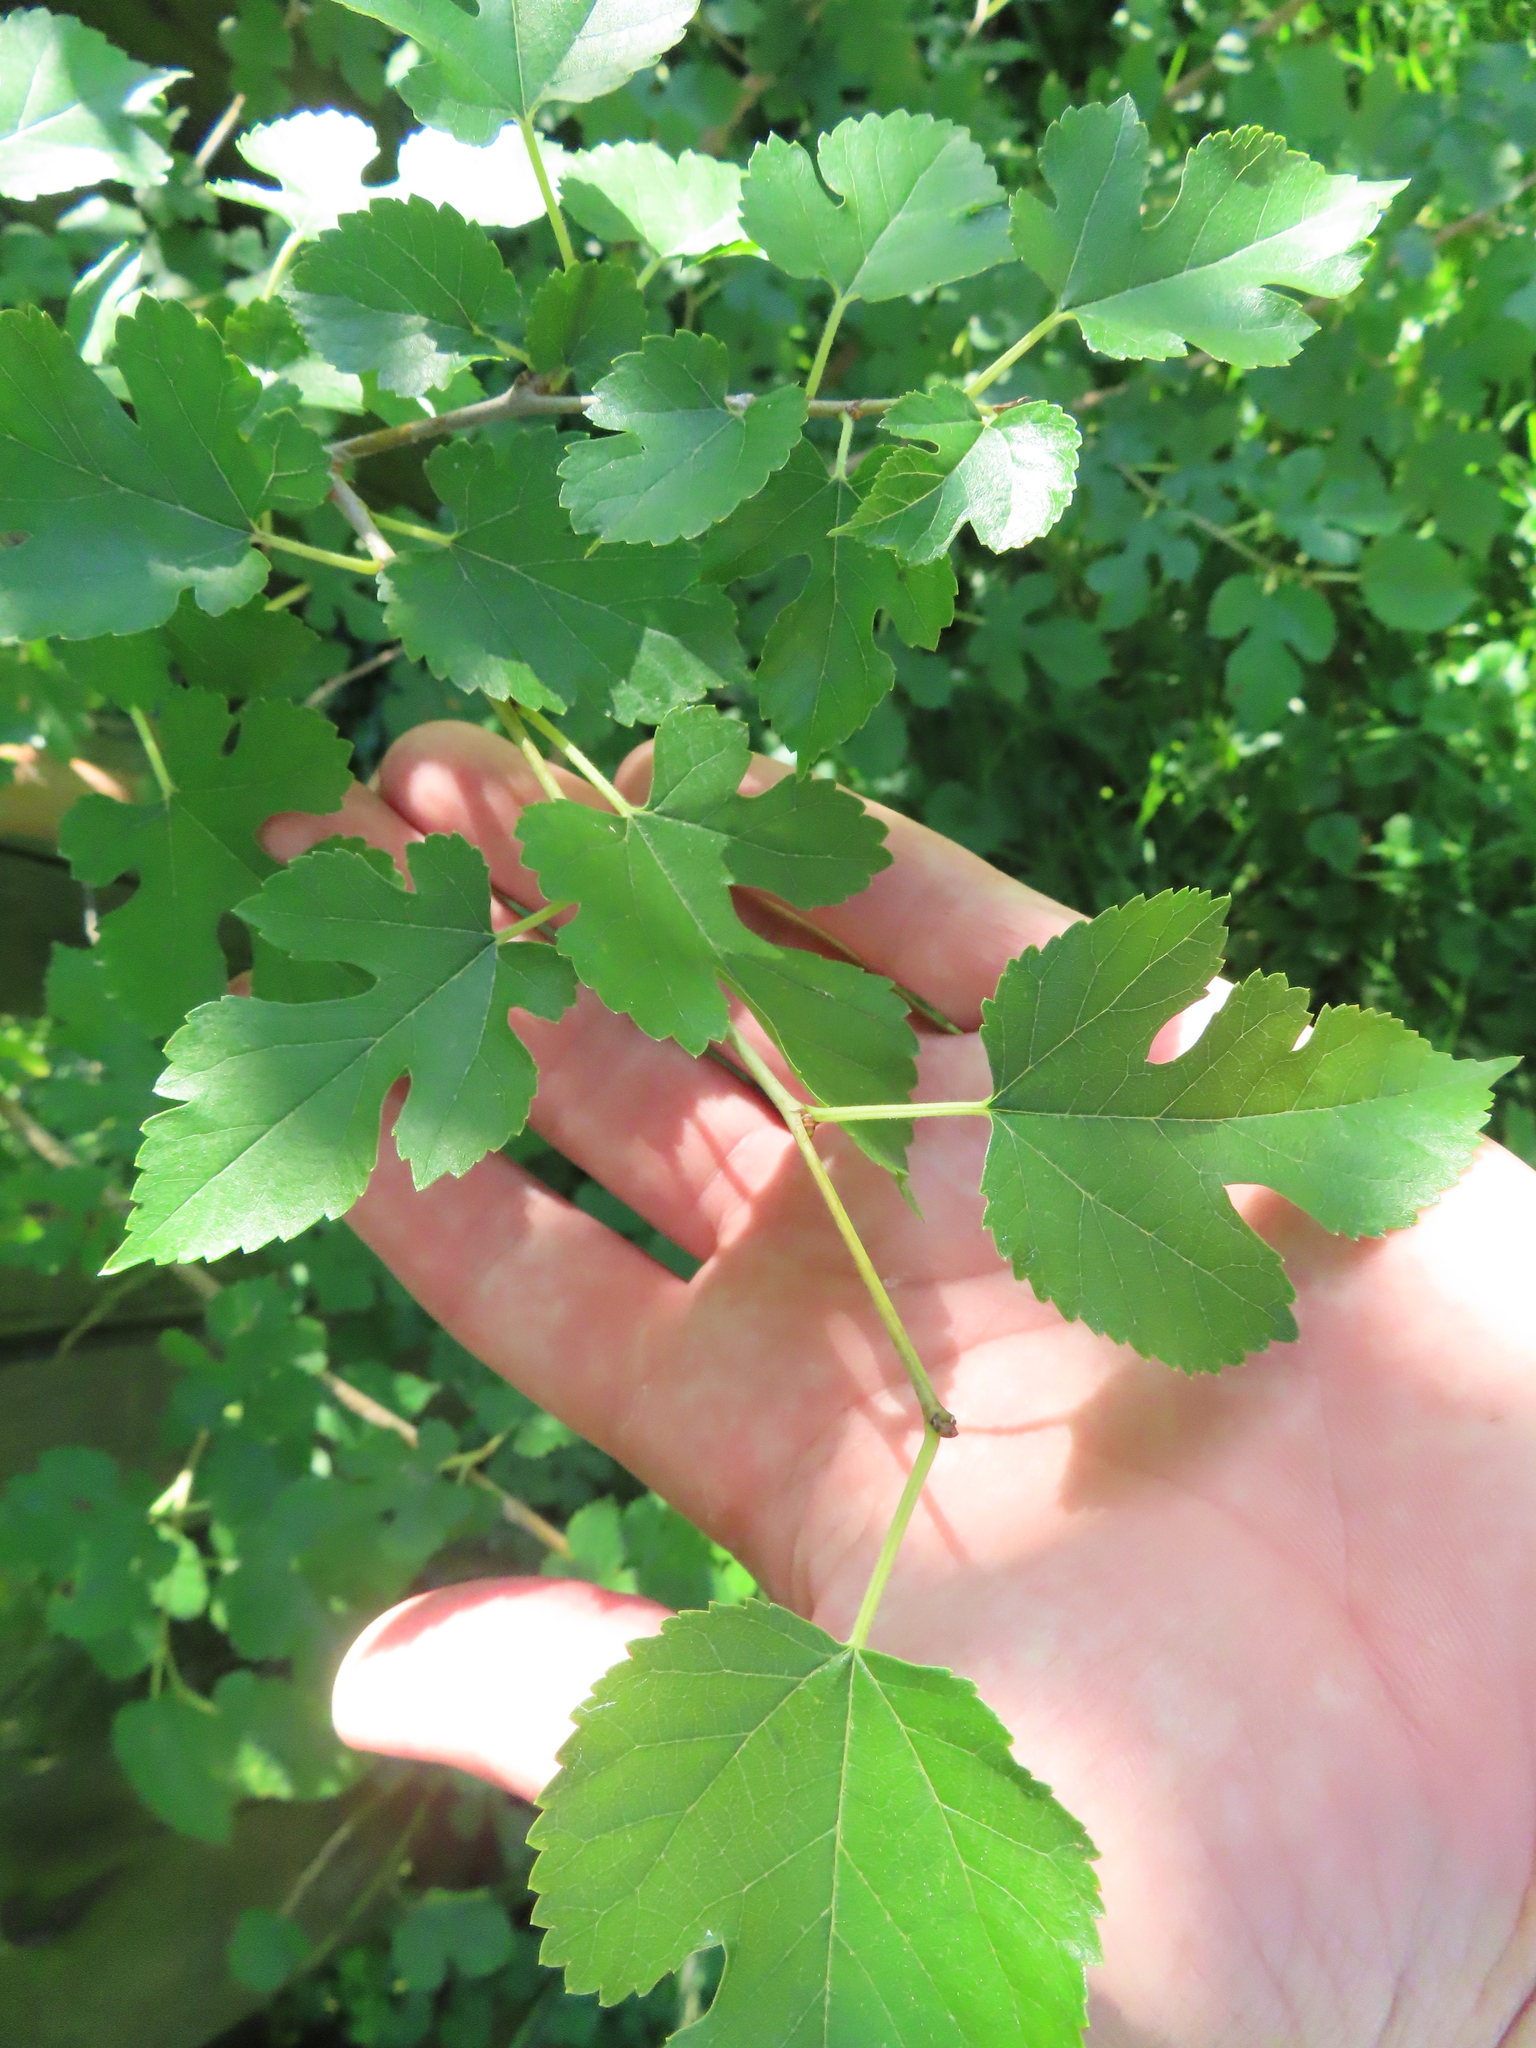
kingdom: Plantae
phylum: Tracheophyta
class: Magnoliopsida
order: Rosales
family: Moraceae
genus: Morus
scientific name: Morus alba
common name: White mulberry
